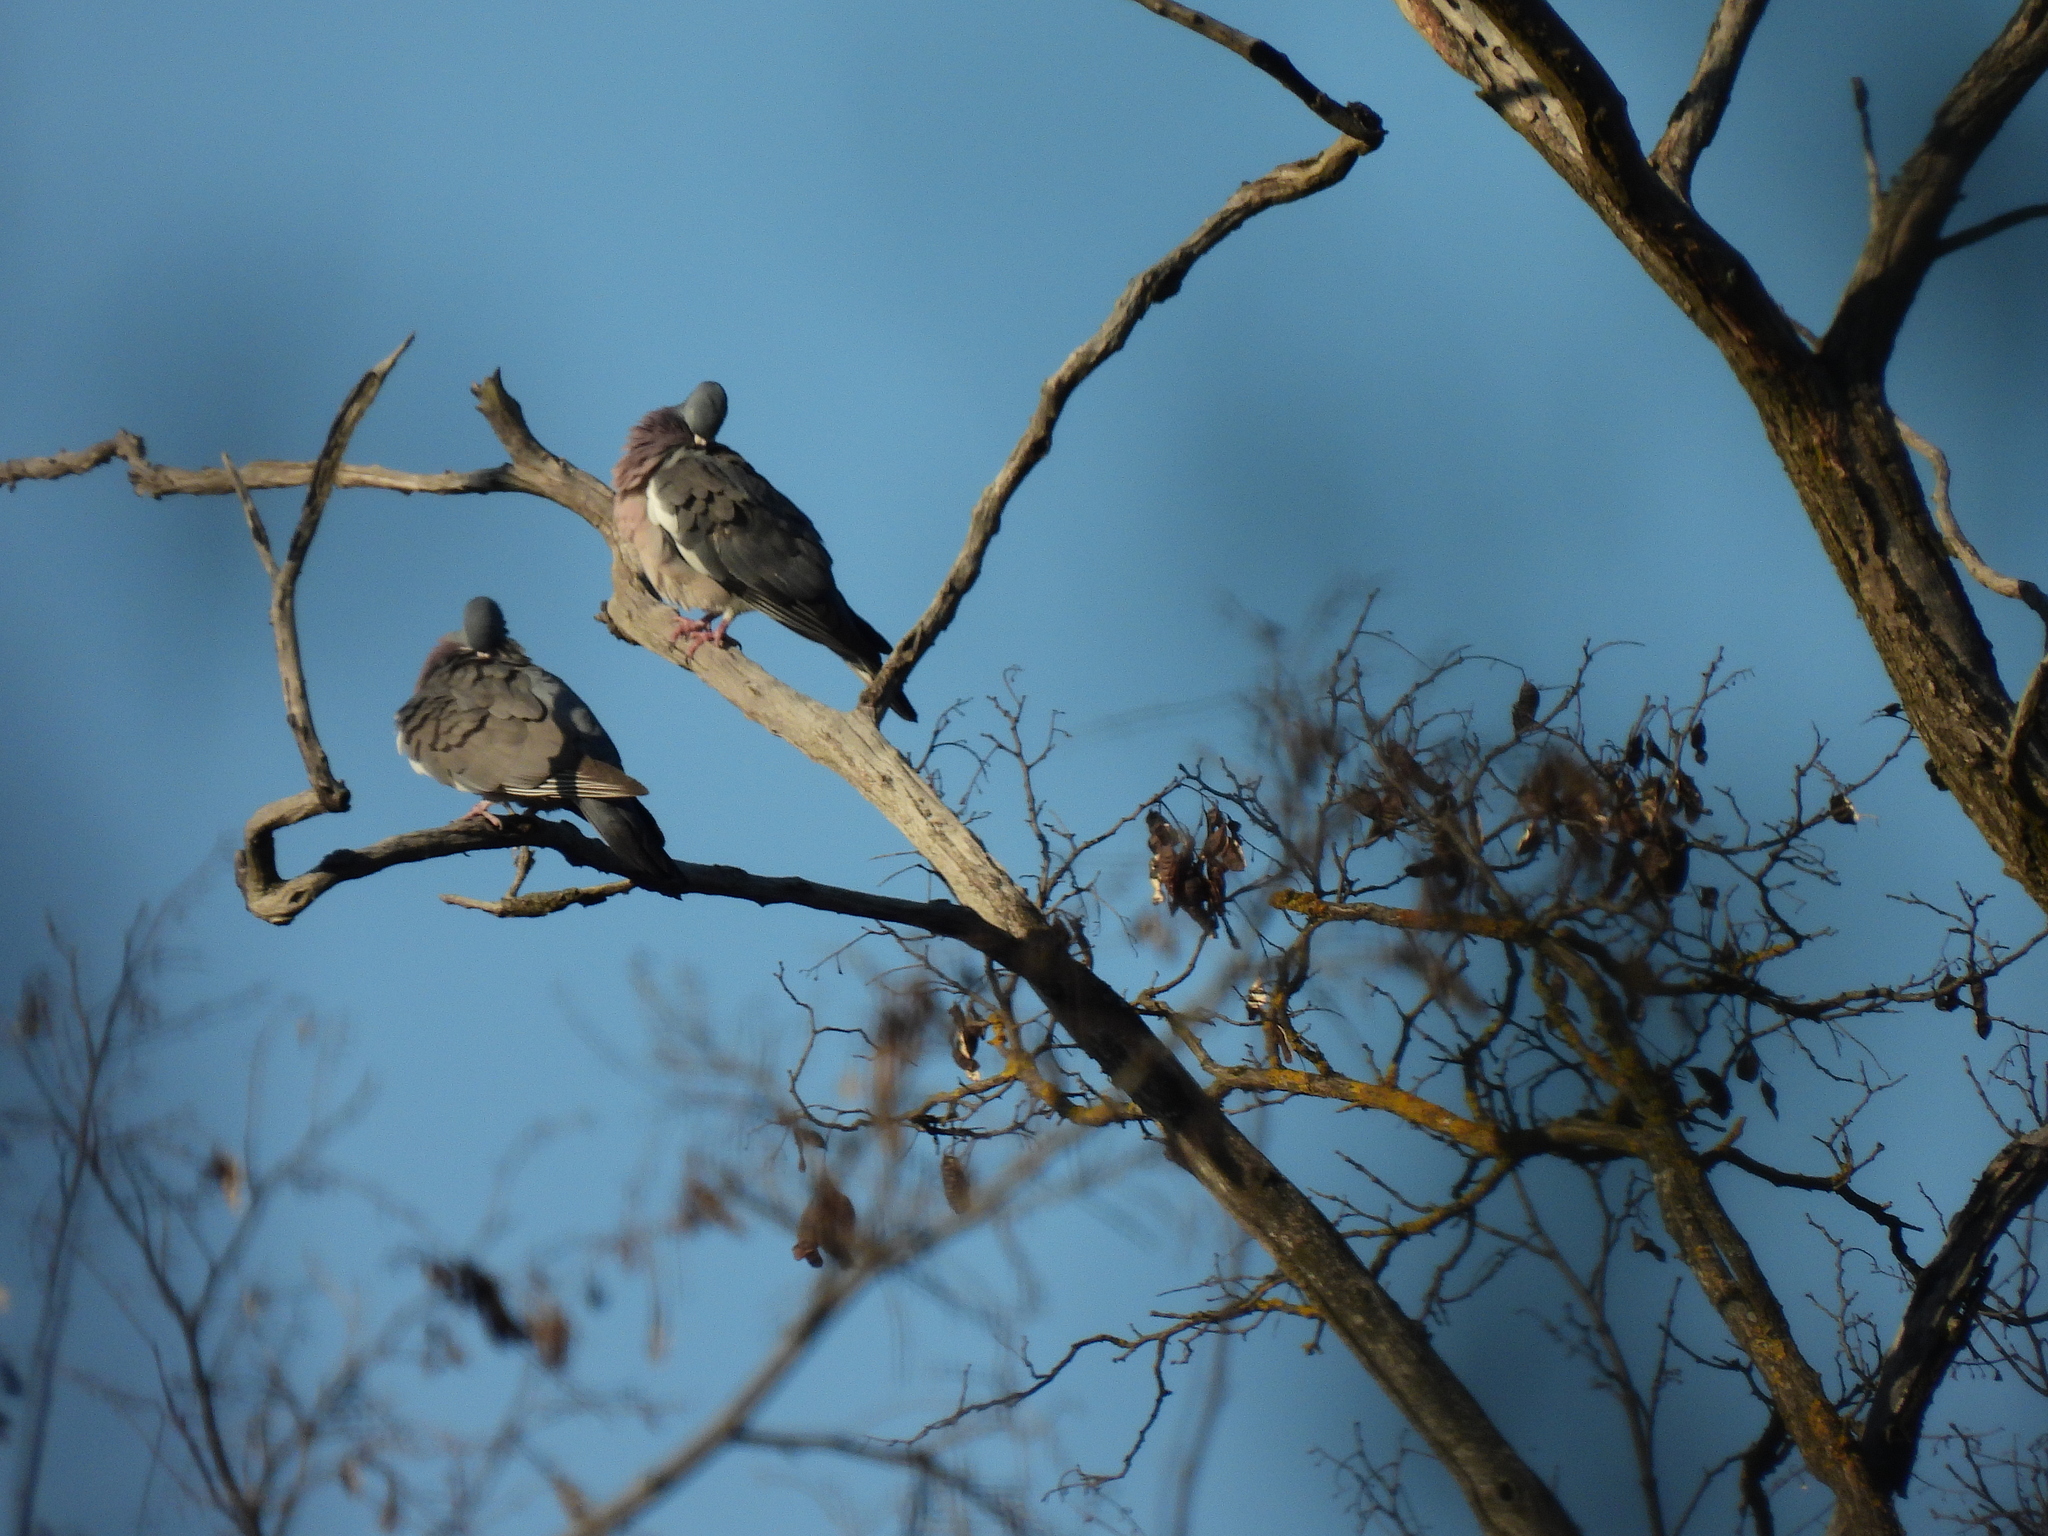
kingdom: Animalia
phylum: Chordata
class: Aves
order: Columbiformes
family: Columbidae
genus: Columba
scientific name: Columba palumbus
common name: Common wood pigeon
